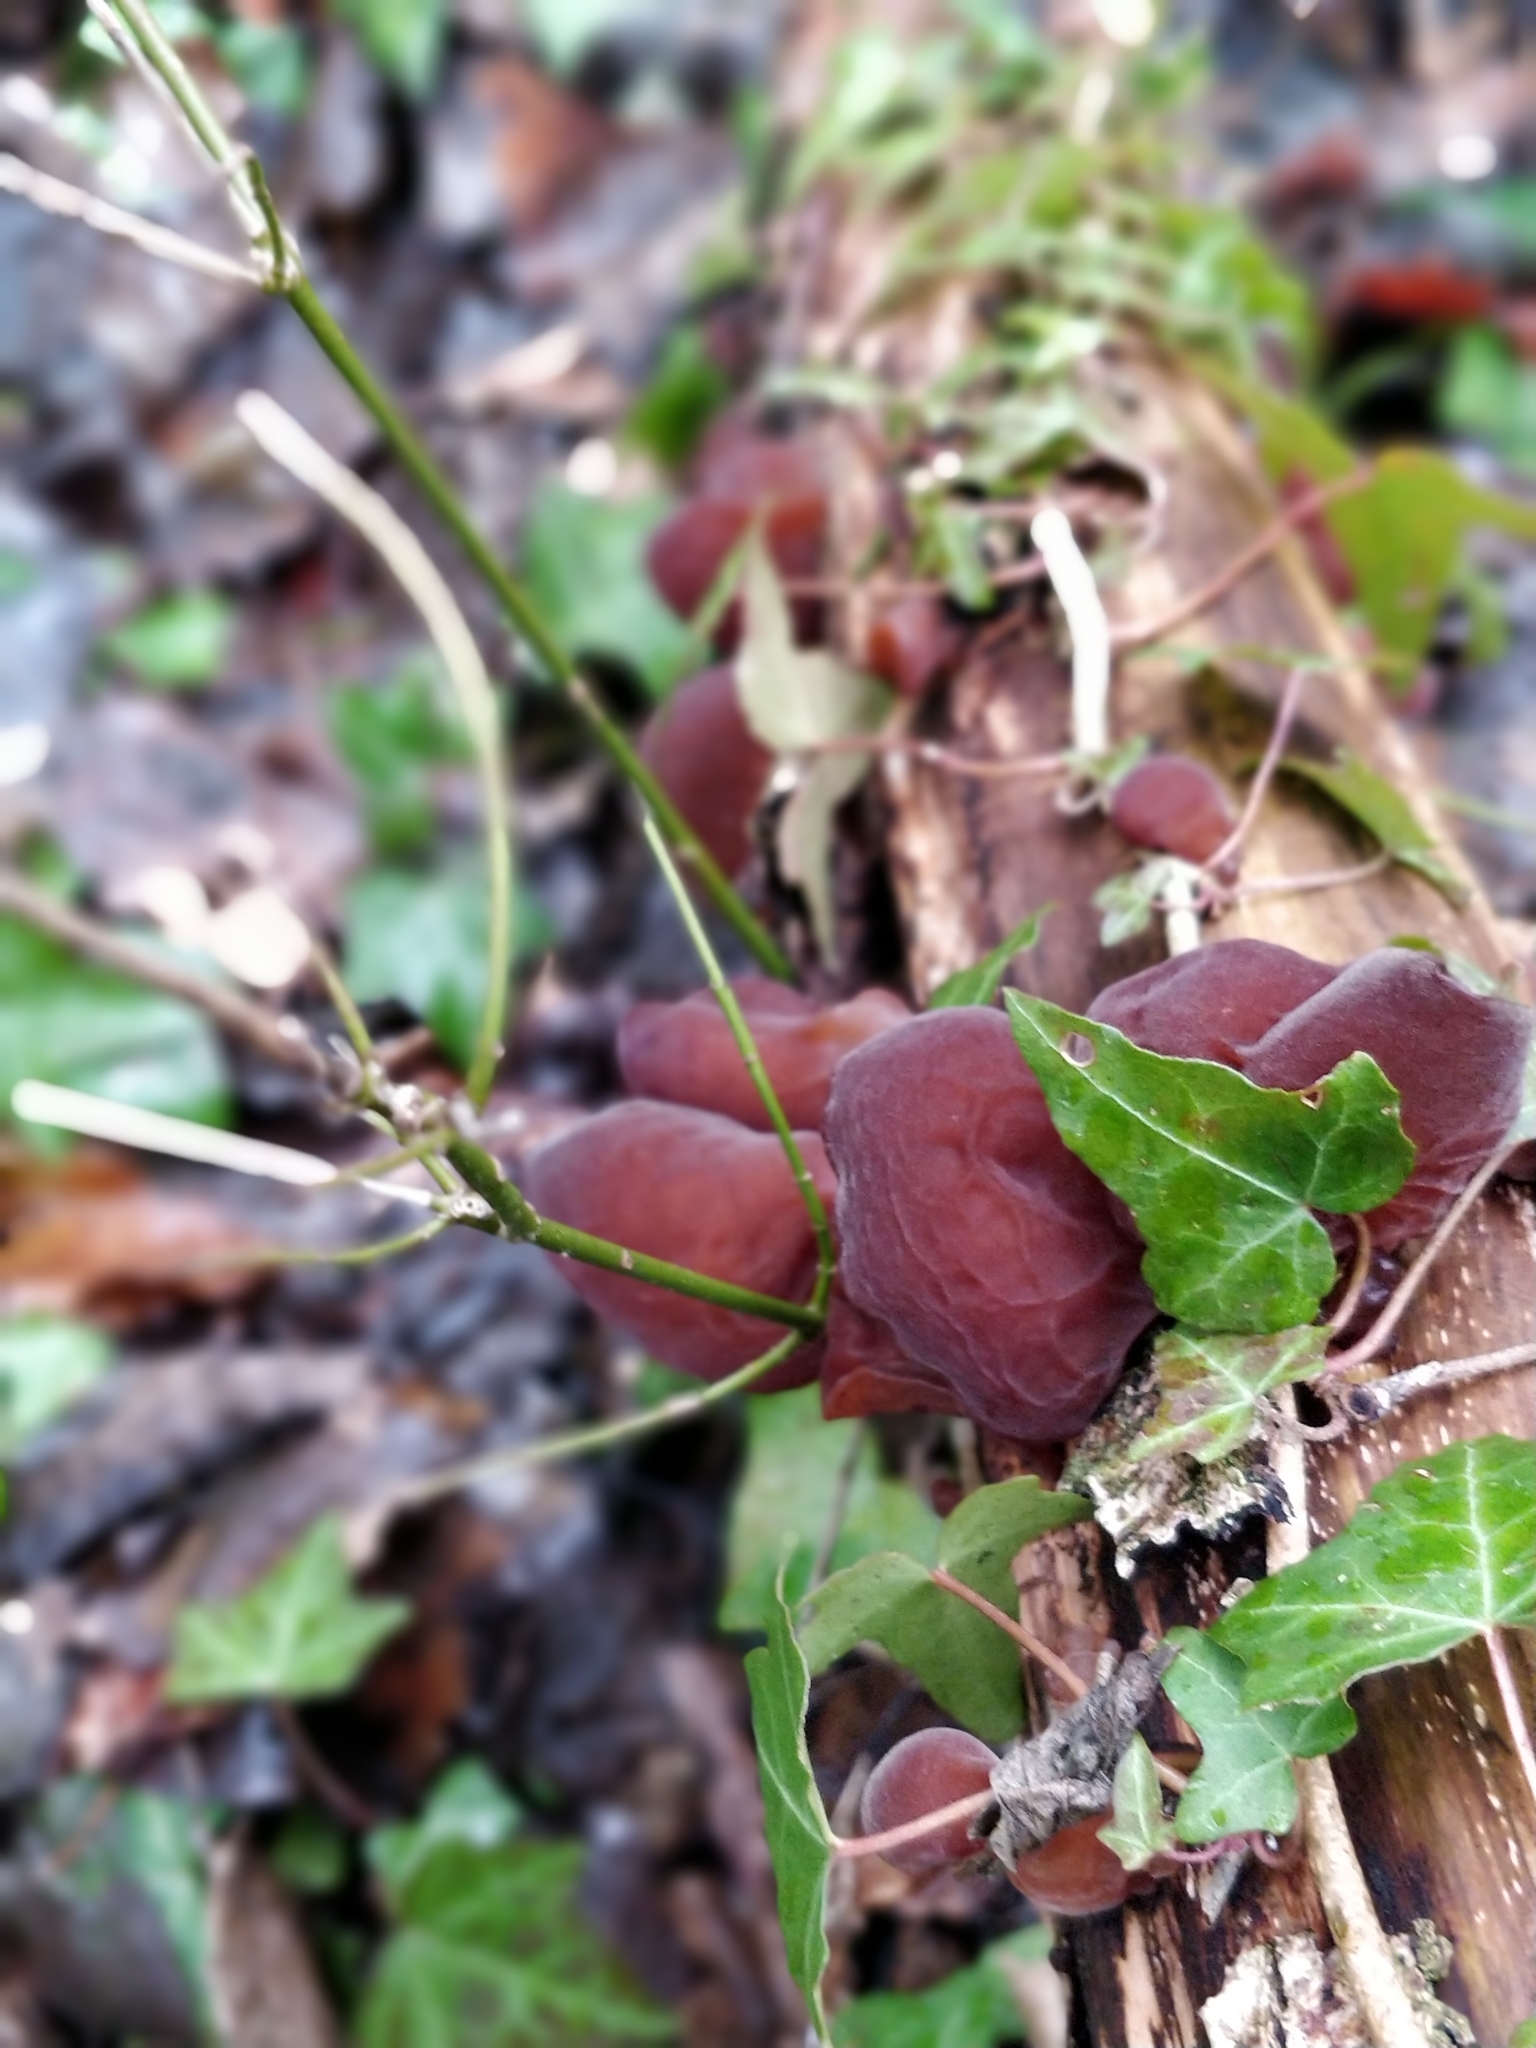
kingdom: Fungi
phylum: Basidiomycota
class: Agaricomycetes
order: Auriculariales
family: Auriculariaceae
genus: Auricularia
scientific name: Auricularia auricula-judae
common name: Jelly ear
